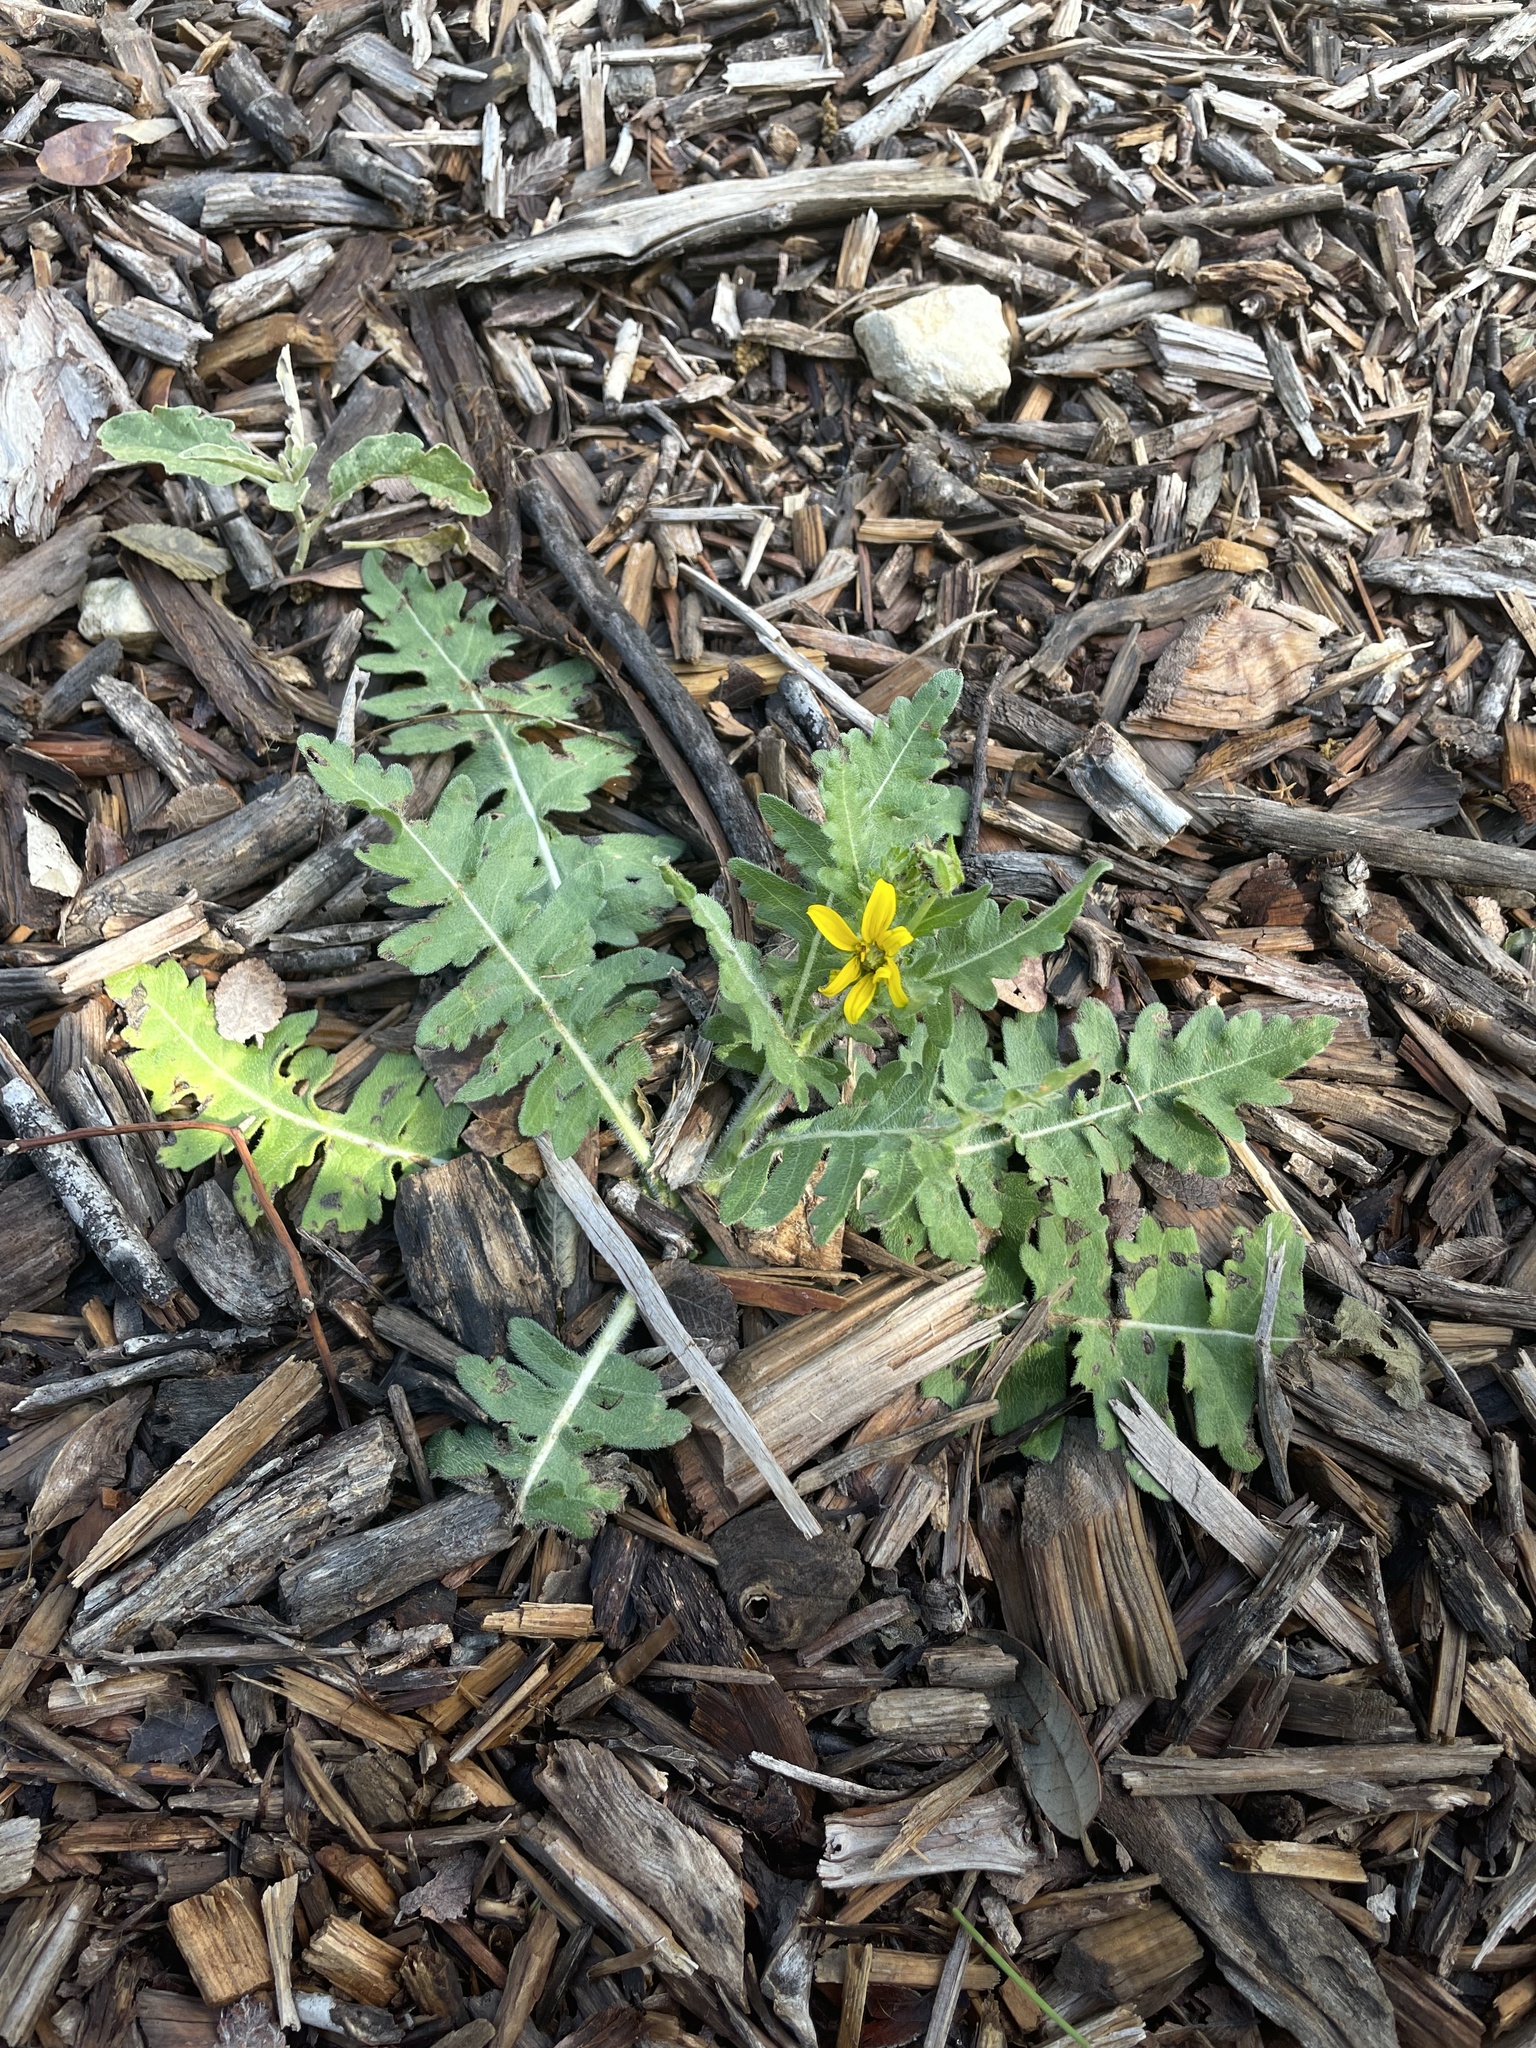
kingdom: Plantae
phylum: Tracheophyta
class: Magnoliopsida
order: Asterales
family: Asteraceae
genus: Engelmannia
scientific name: Engelmannia peristenia
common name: Engelmann's daisy
